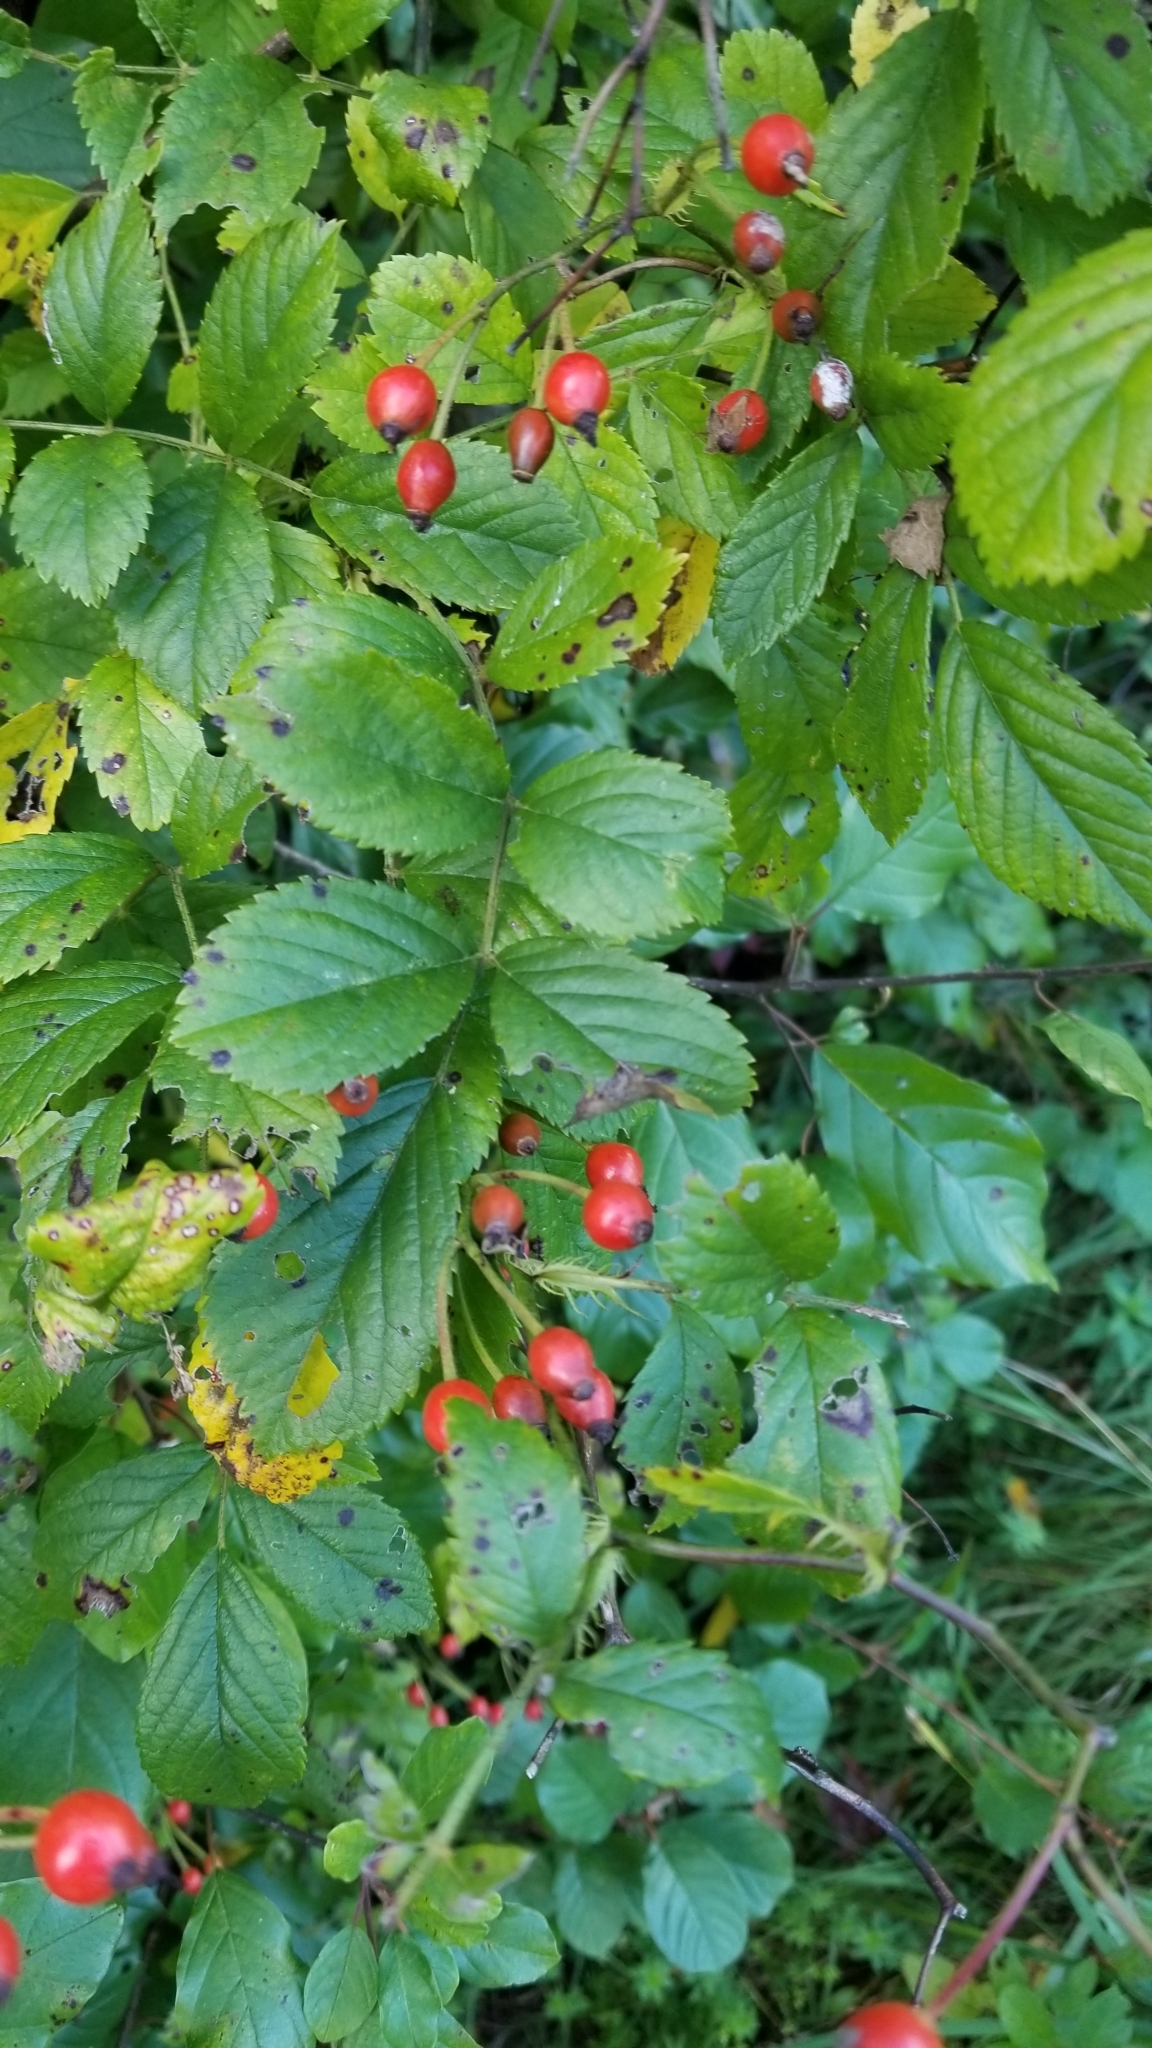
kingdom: Plantae
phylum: Tracheophyta
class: Magnoliopsida
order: Rosales
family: Rosaceae
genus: Rosa
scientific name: Rosa multiflora
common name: Multiflora rose
